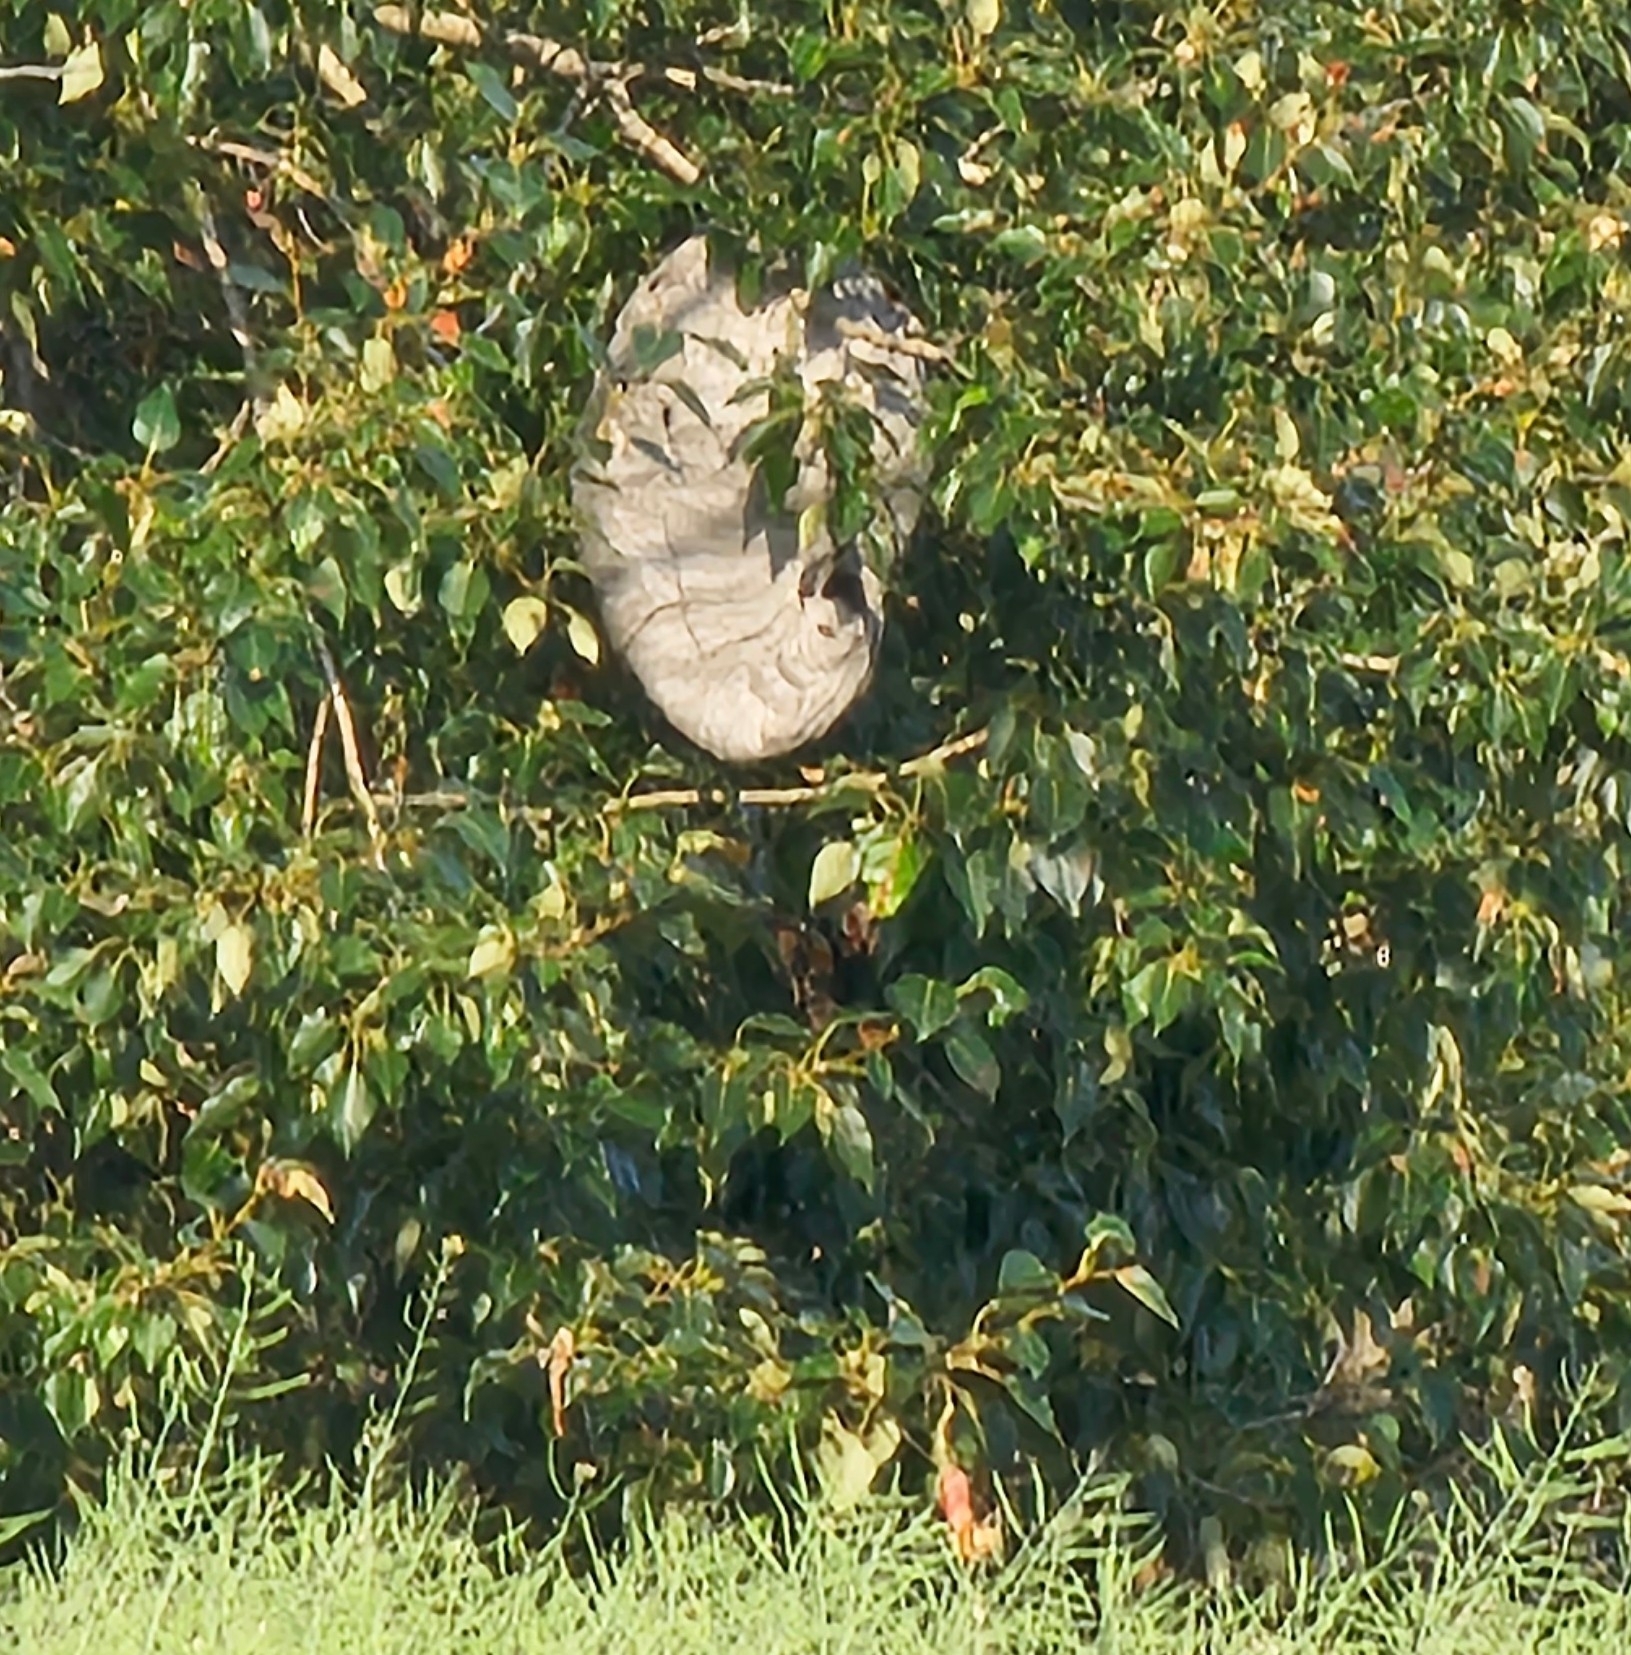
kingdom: Animalia
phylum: Arthropoda
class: Insecta
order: Hymenoptera
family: Vespidae
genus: Dolichovespula
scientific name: Dolichovespula
